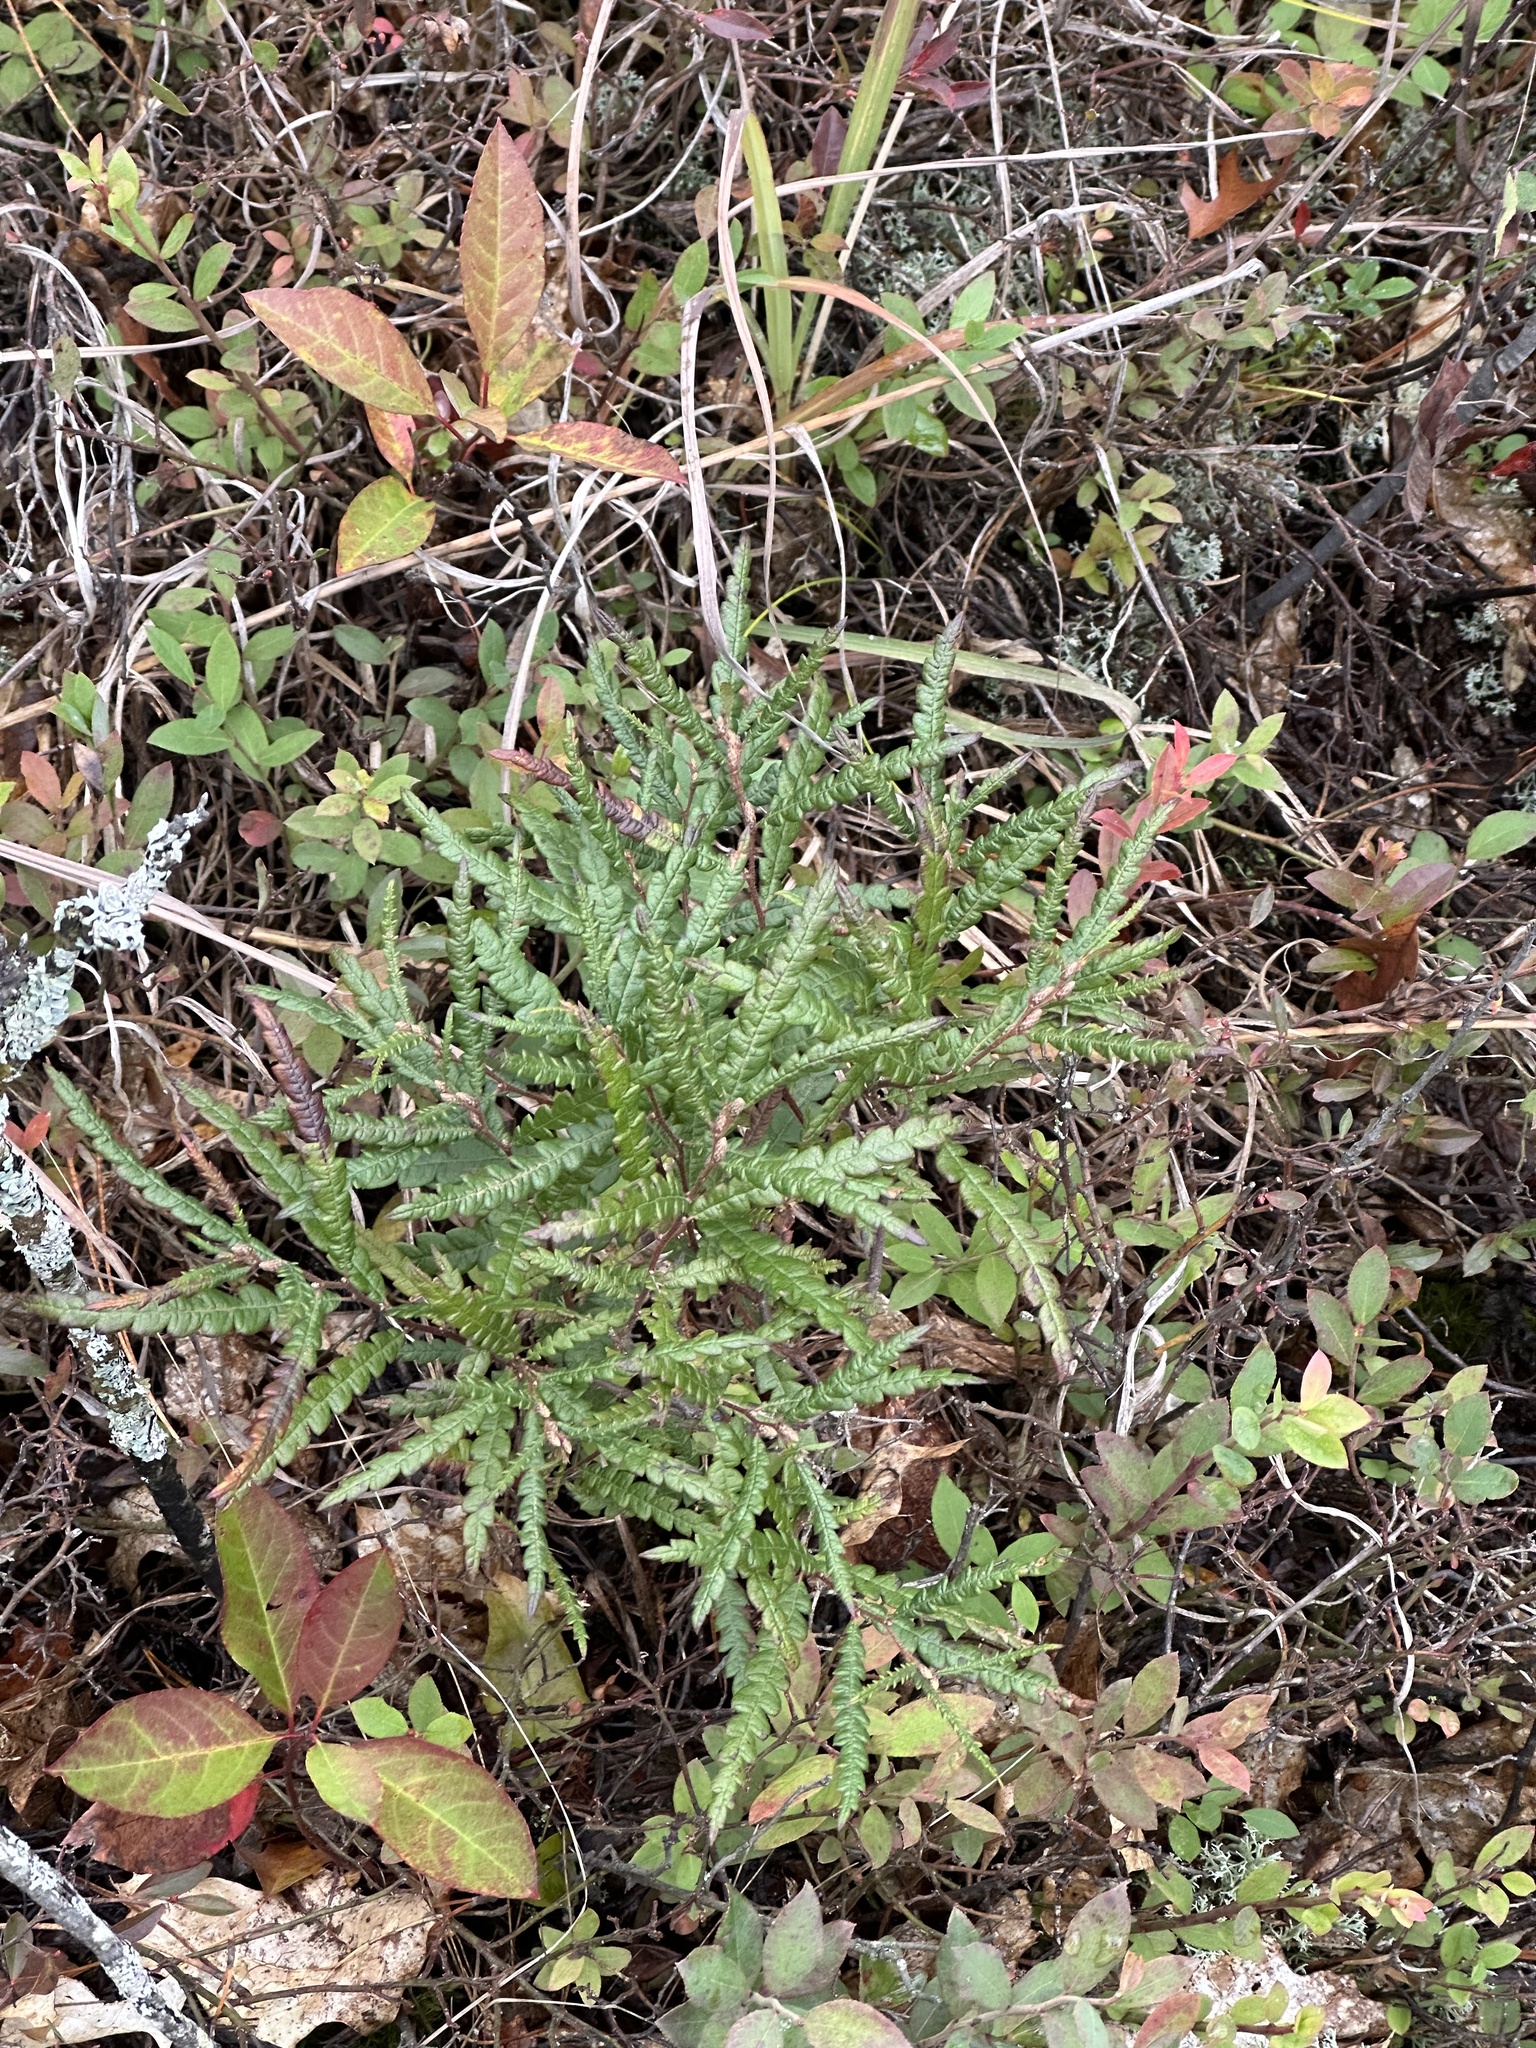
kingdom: Plantae
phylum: Tracheophyta
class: Magnoliopsida
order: Fagales
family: Myricaceae
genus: Comptonia
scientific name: Comptonia peregrina
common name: Sweet-fern
